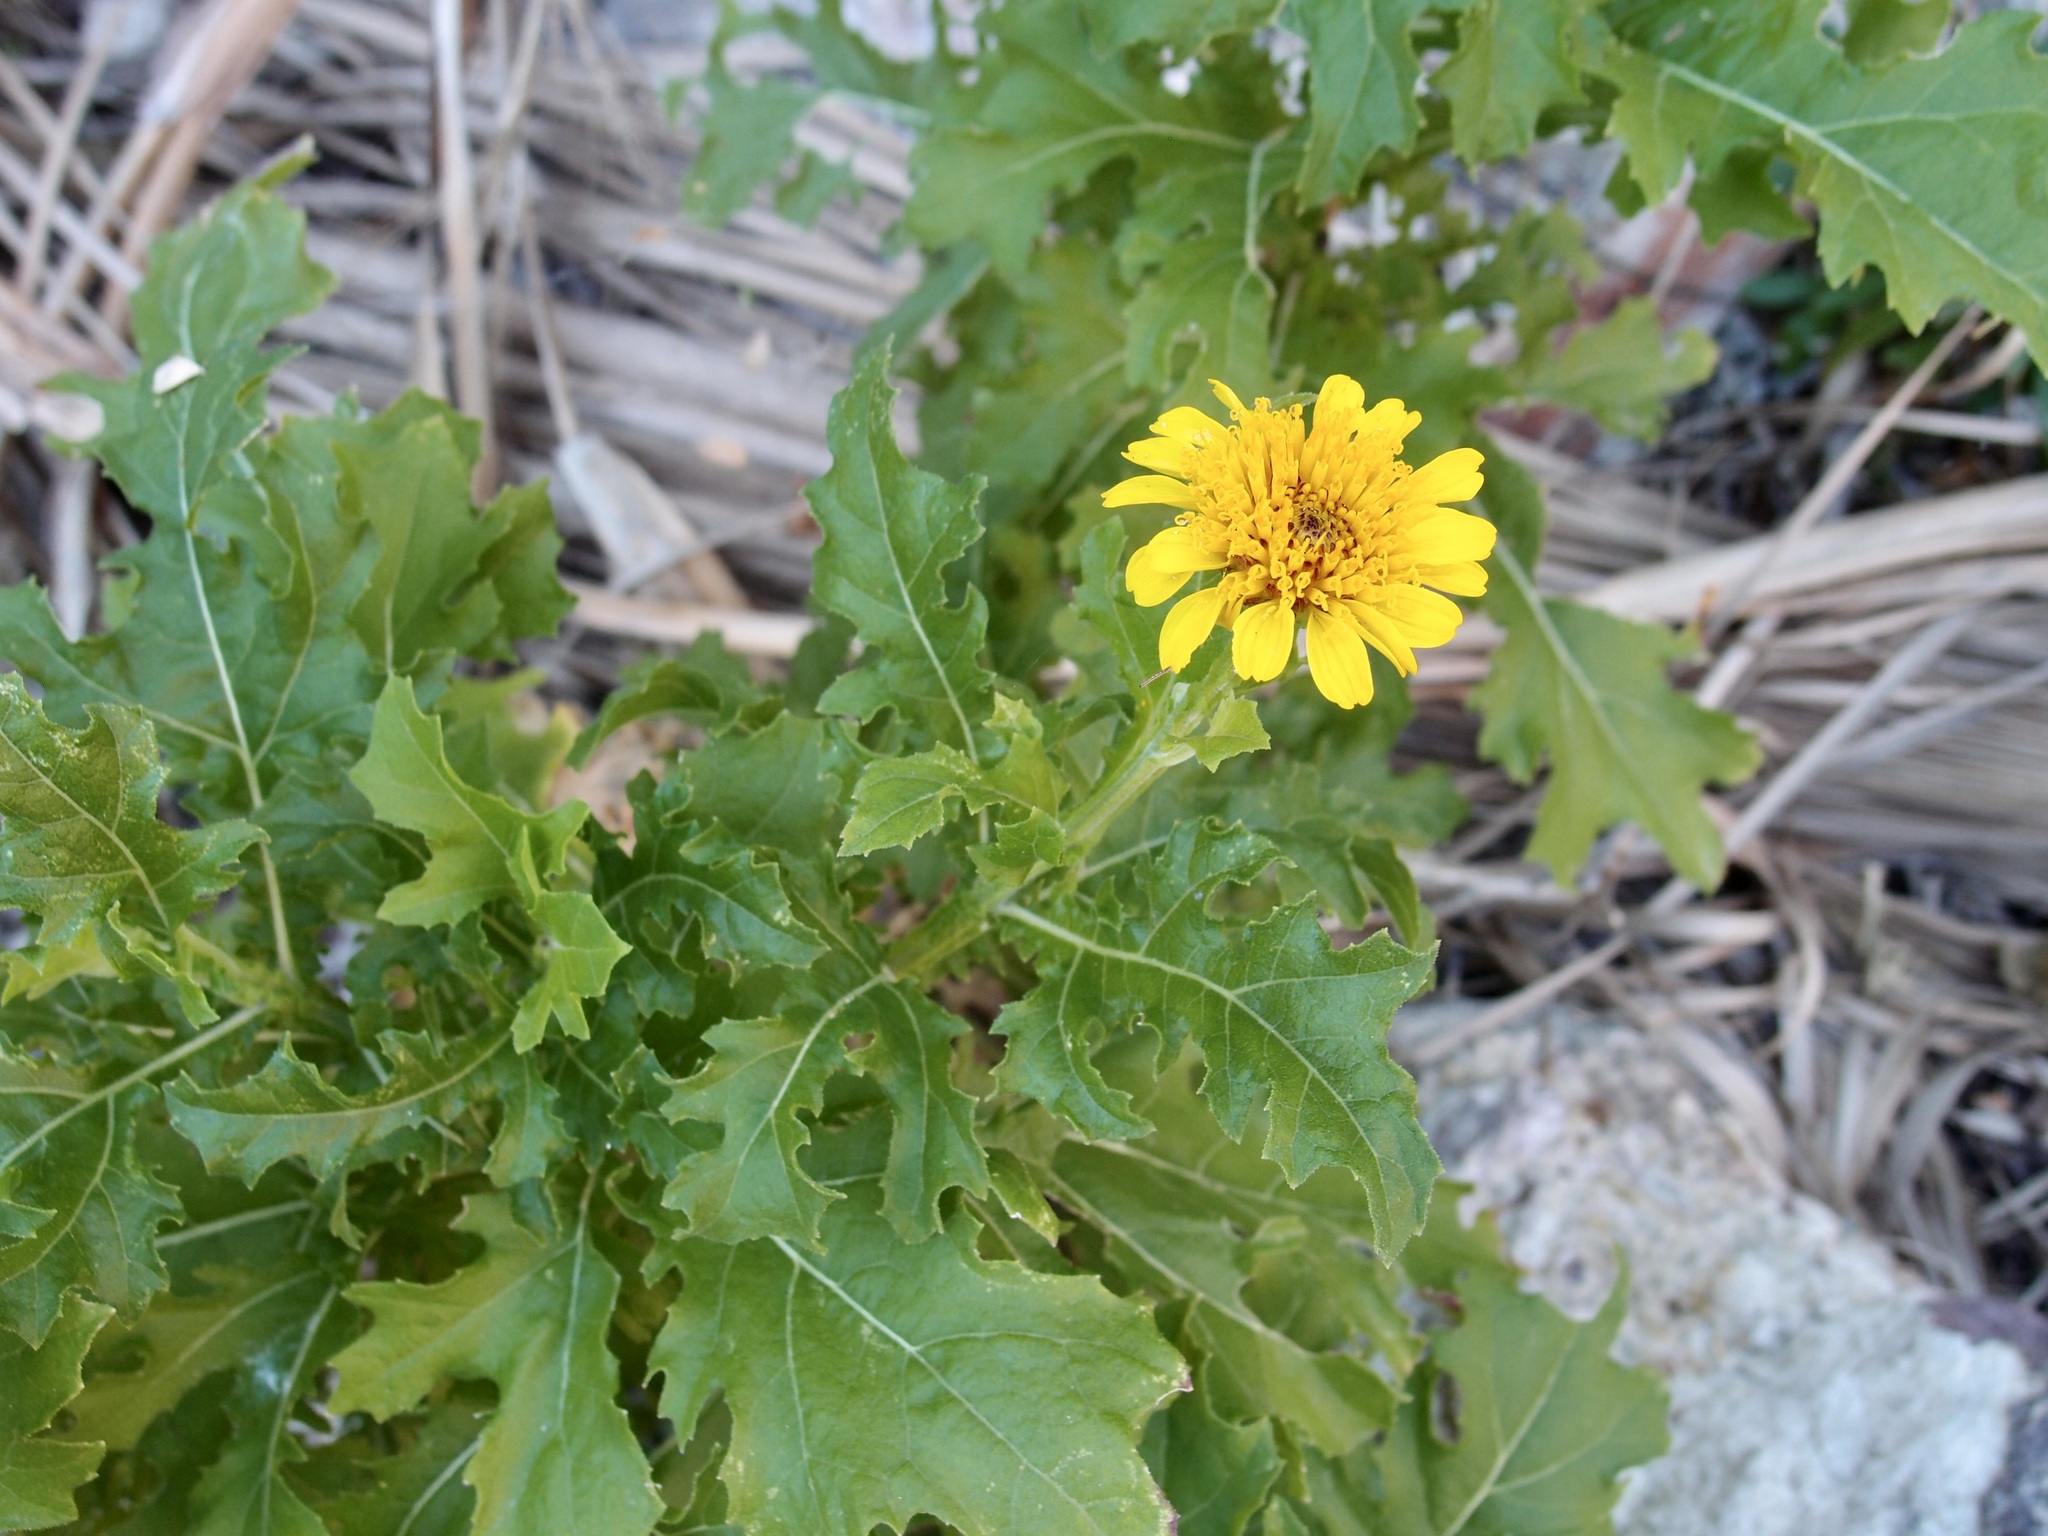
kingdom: Plantae
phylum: Tracheophyta
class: Magnoliopsida
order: Asterales
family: Asteraceae
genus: Verbesina
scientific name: Verbesina felgeri
